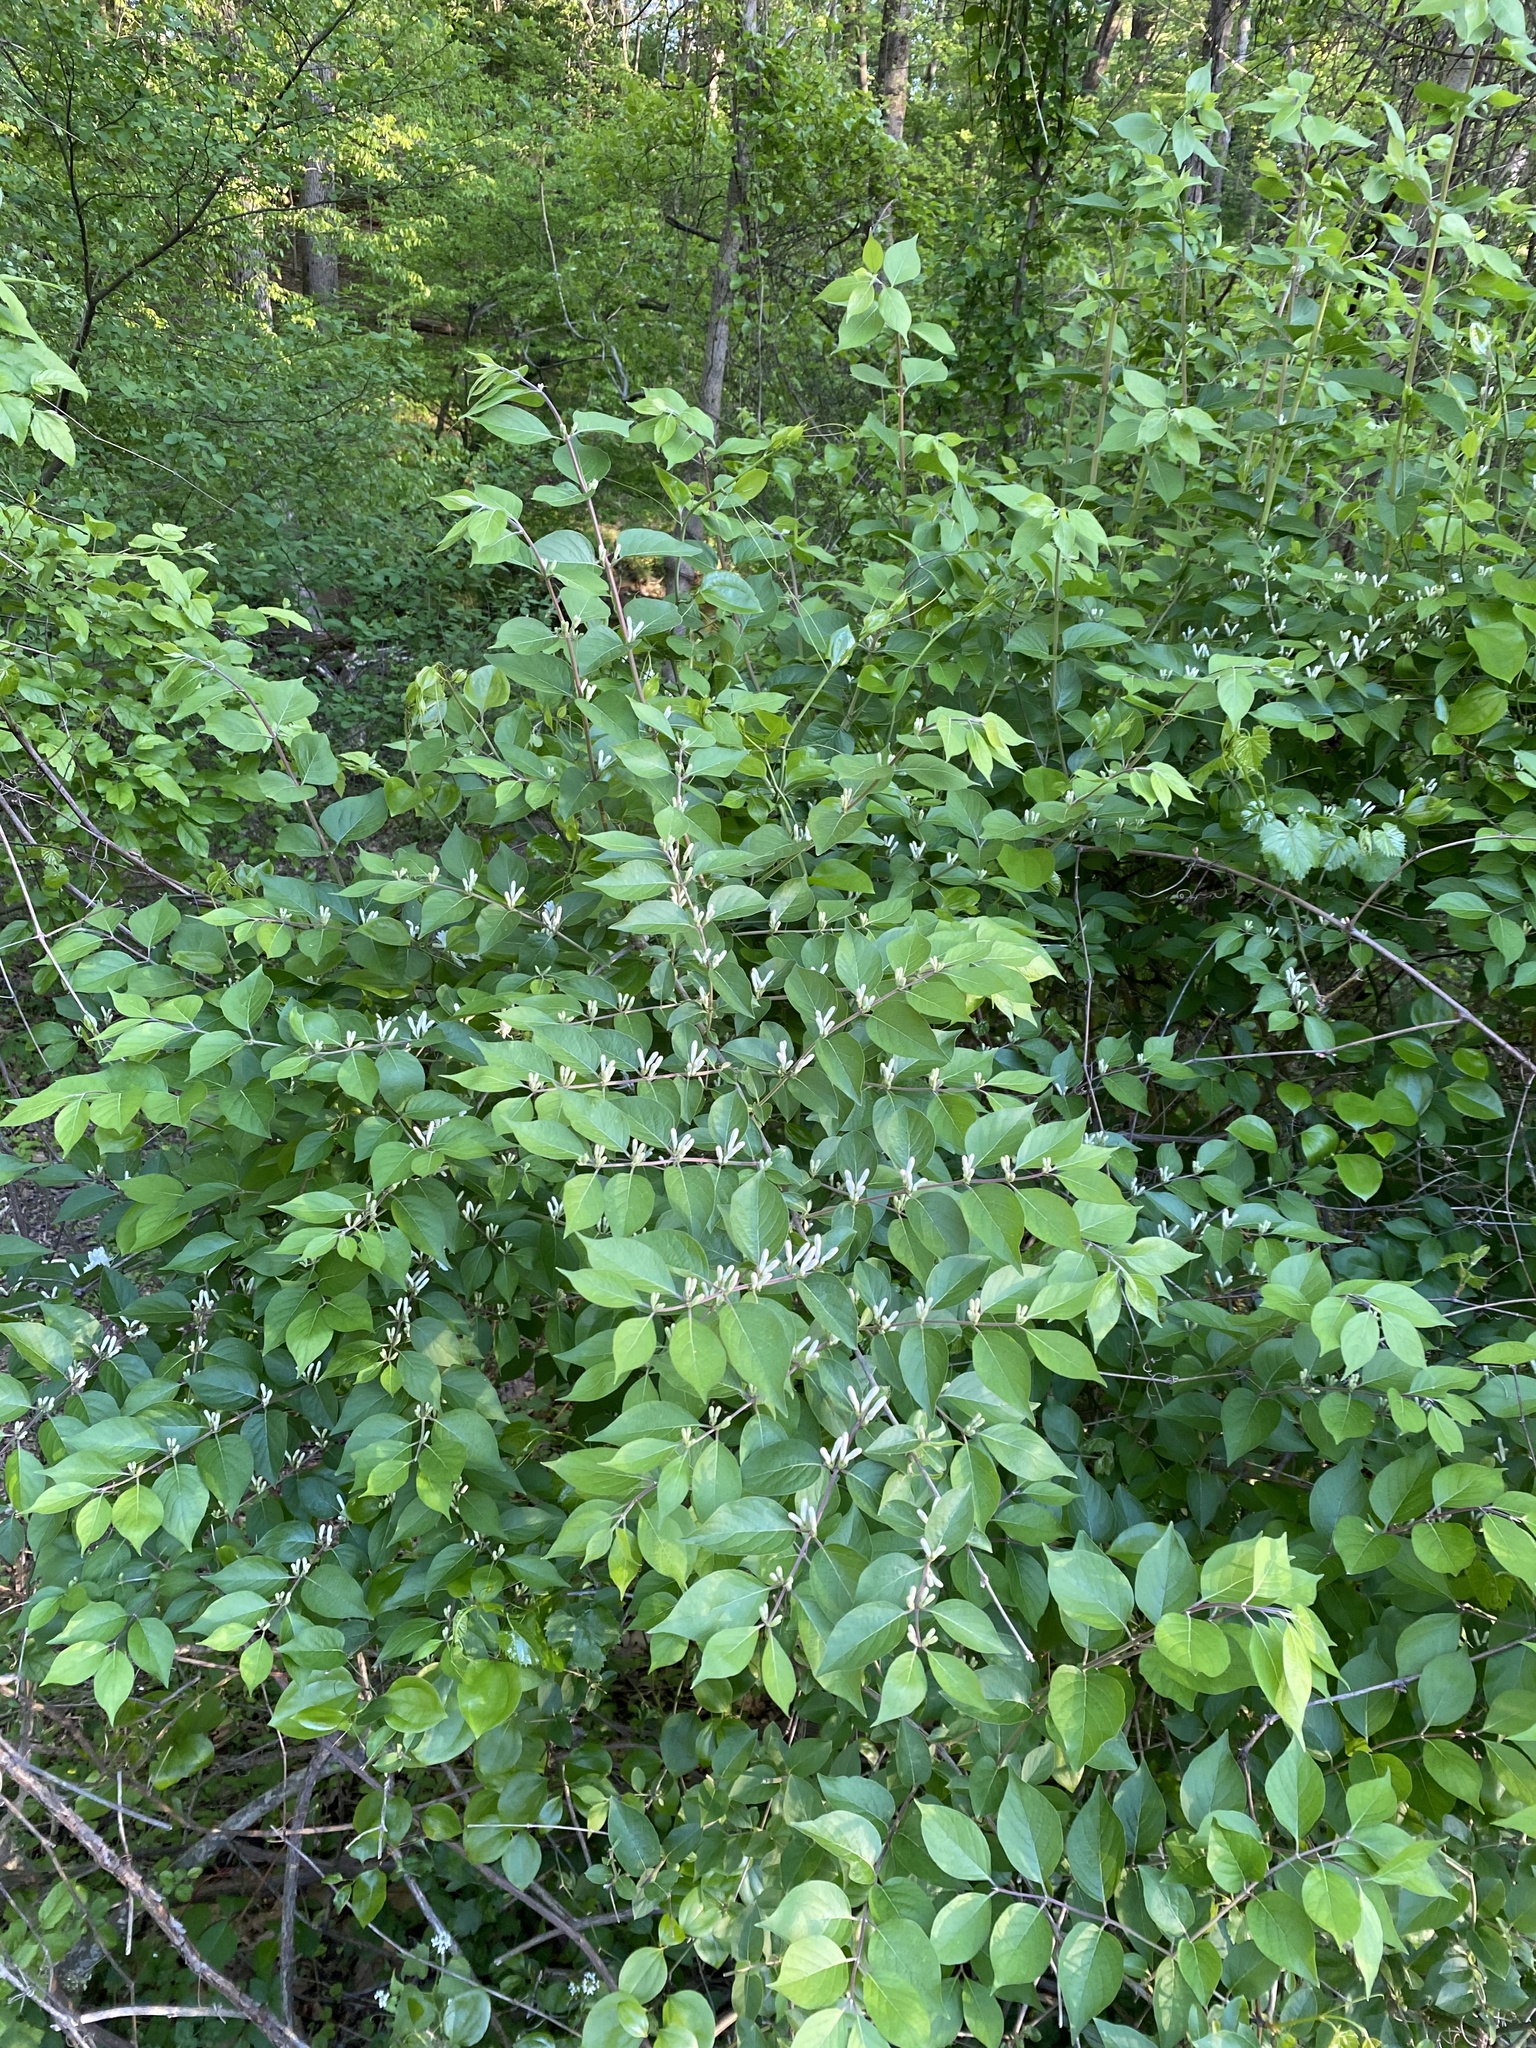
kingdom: Plantae
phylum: Tracheophyta
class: Magnoliopsida
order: Dipsacales
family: Caprifoliaceae
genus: Lonicera
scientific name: Lonicera maackii
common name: Amur honeysuckle
